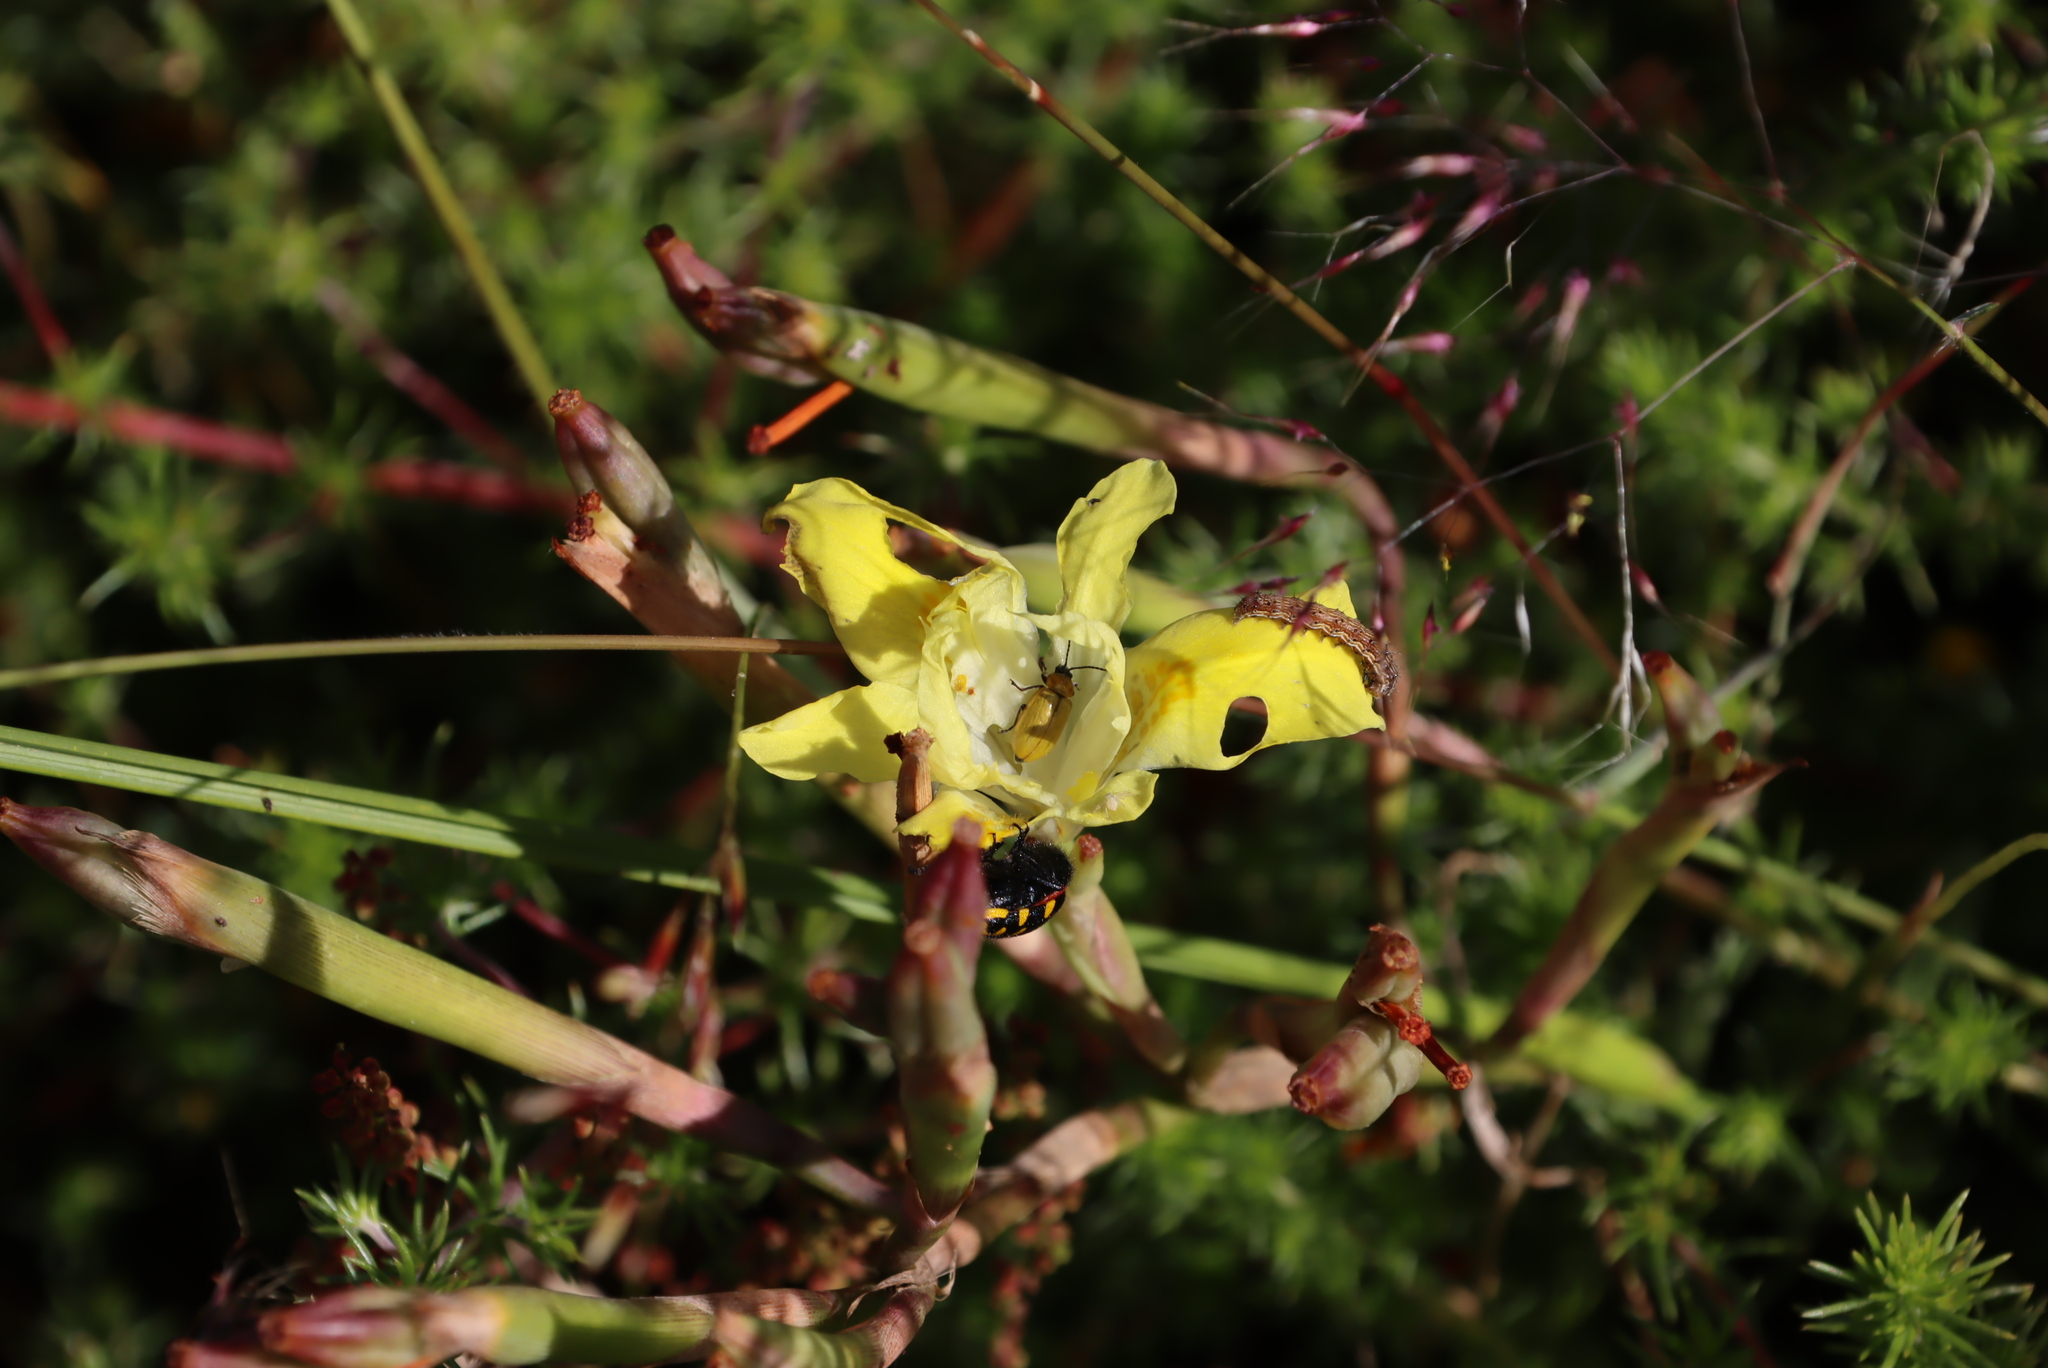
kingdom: Animalia
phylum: Arthropoda
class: Insecta
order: Lepidoptera
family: Noctuidae
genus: Helicoverpa
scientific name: Helicoverpa armigera
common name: Cotton bollworm
